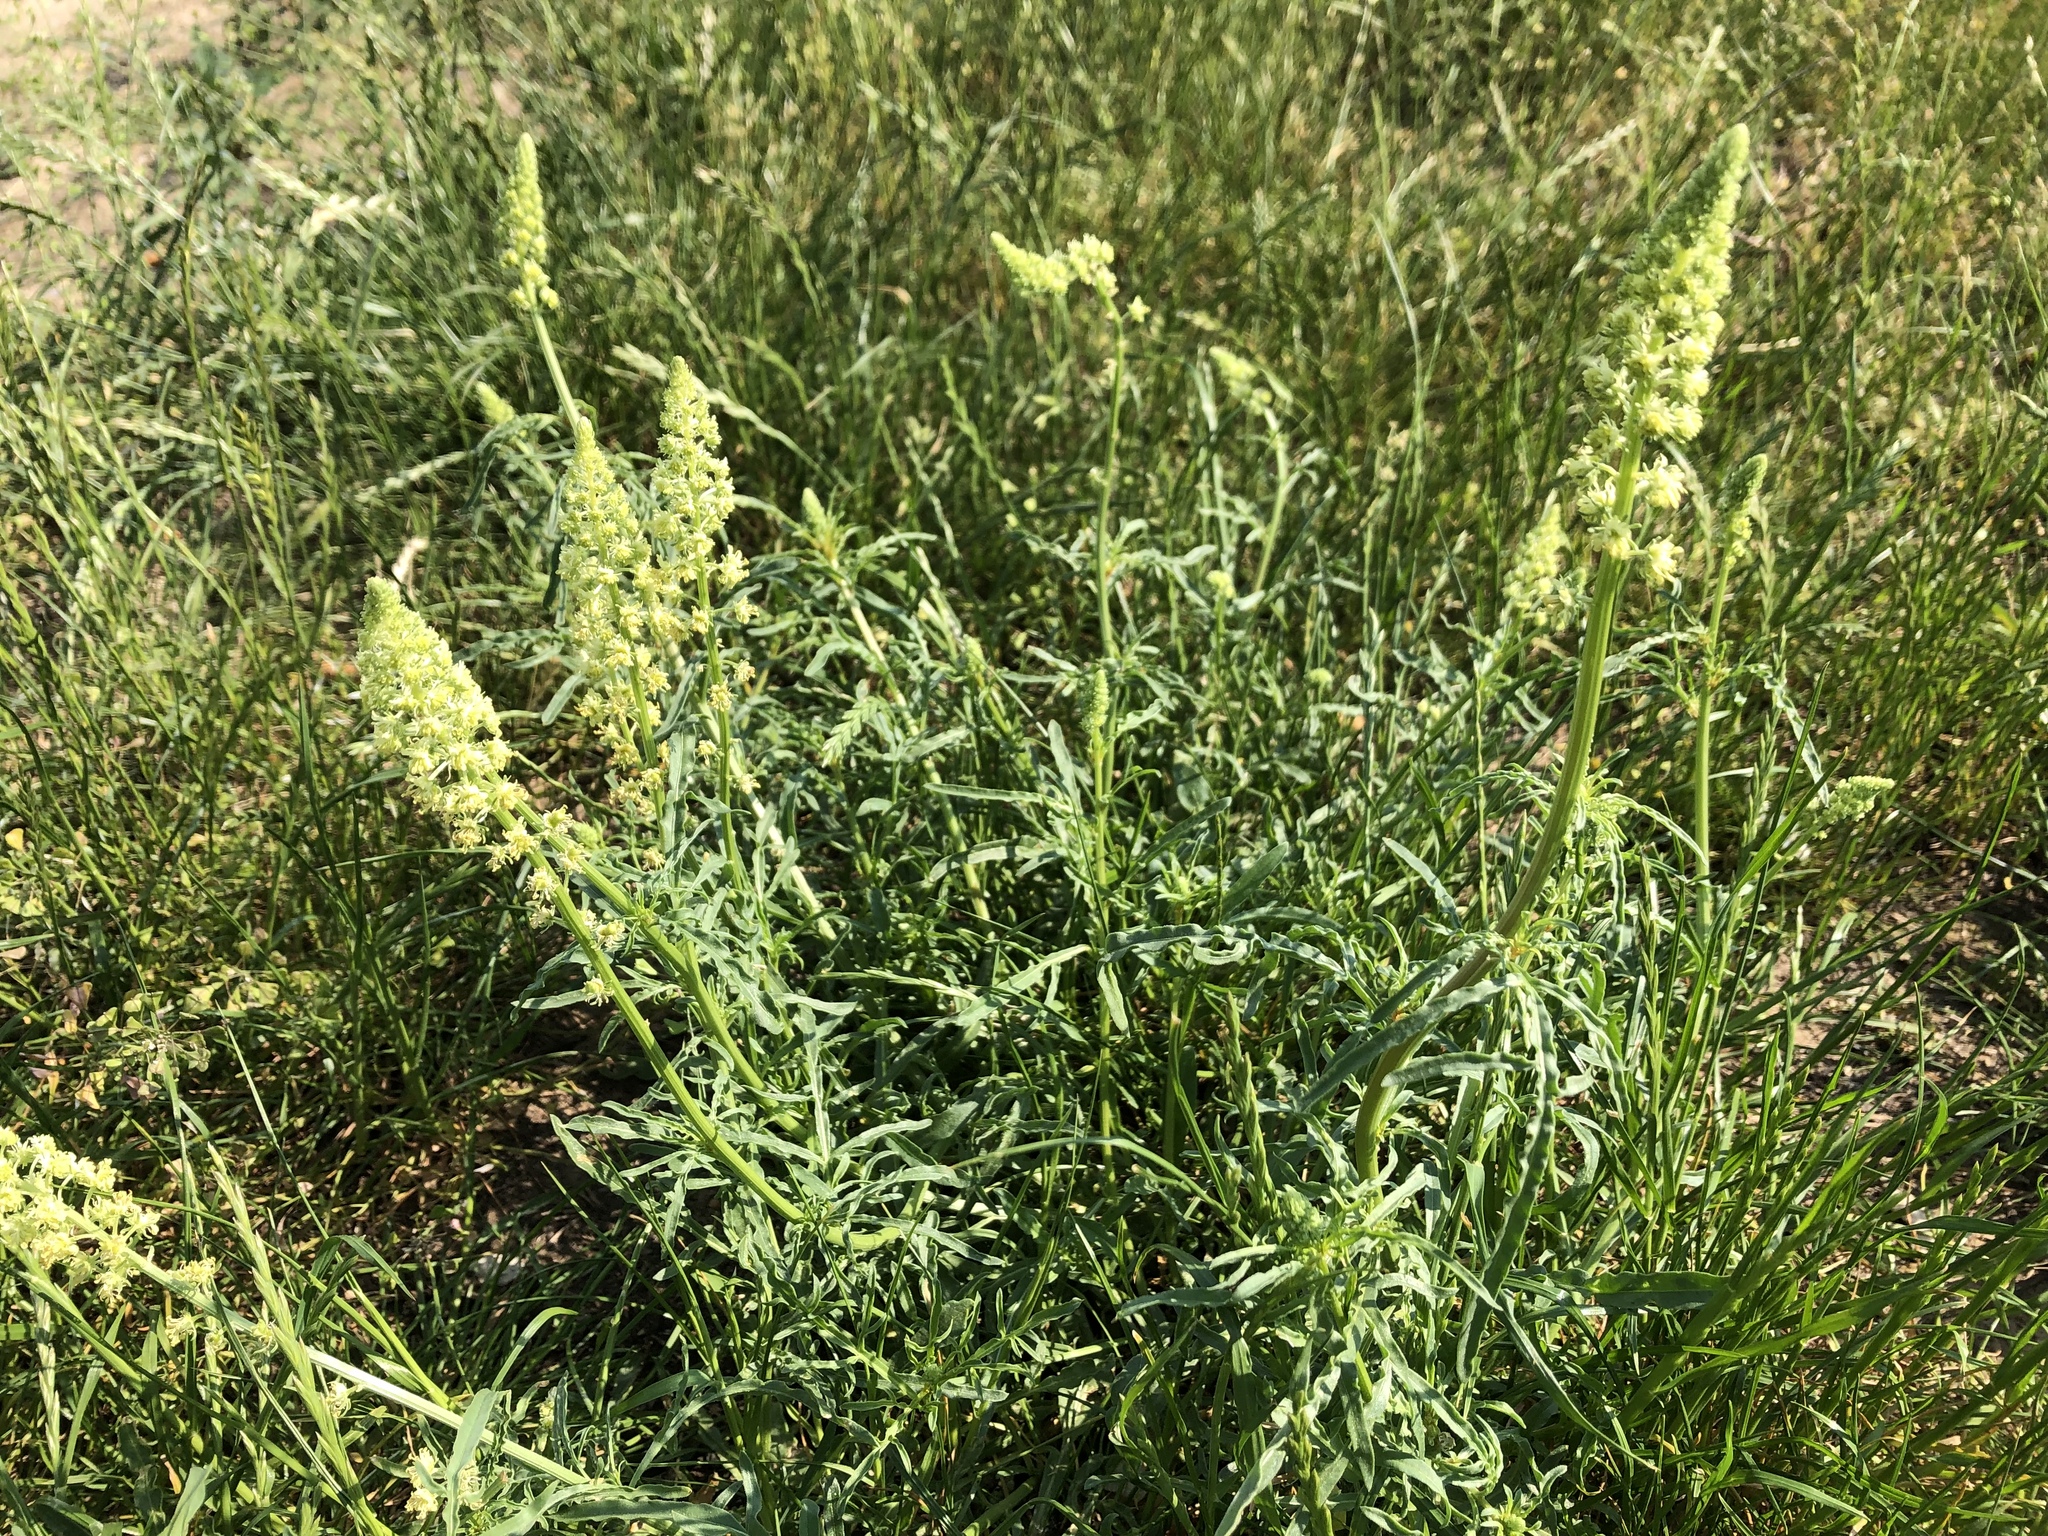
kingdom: Plantae
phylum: Tracheophyta
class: Magnoliopsida
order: Brassicales
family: Resedaceae
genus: Reseda
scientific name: Reseda lutea
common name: Wild mignonette
